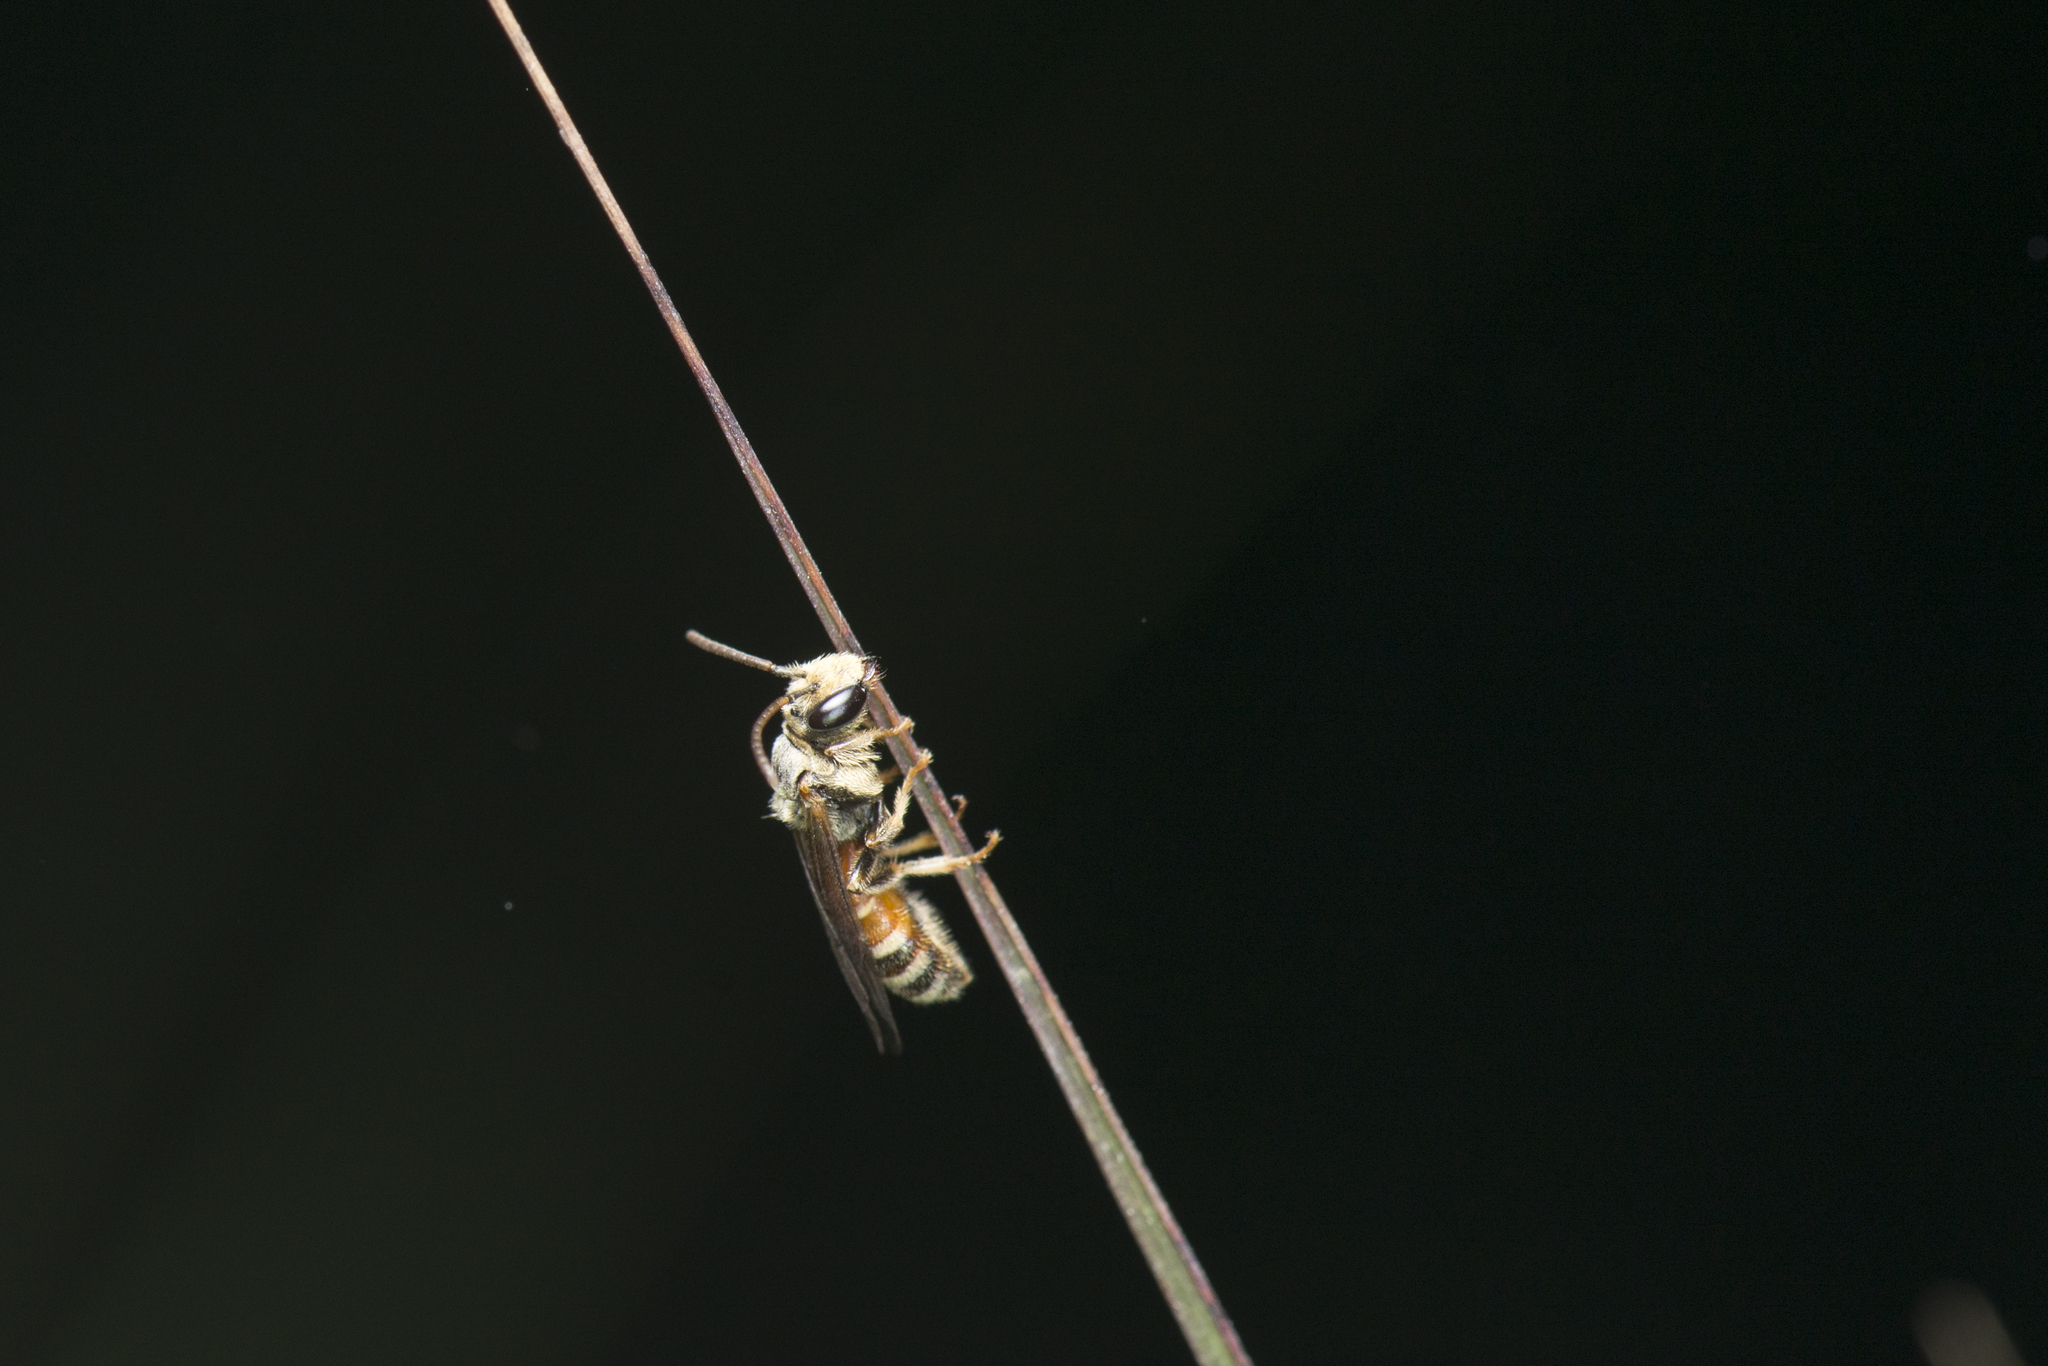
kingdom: Animalia
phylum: Arthropoda
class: Insecta
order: Hymenoptera
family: Halictidae
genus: Lipotriches
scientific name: Lipotriches ceratina
